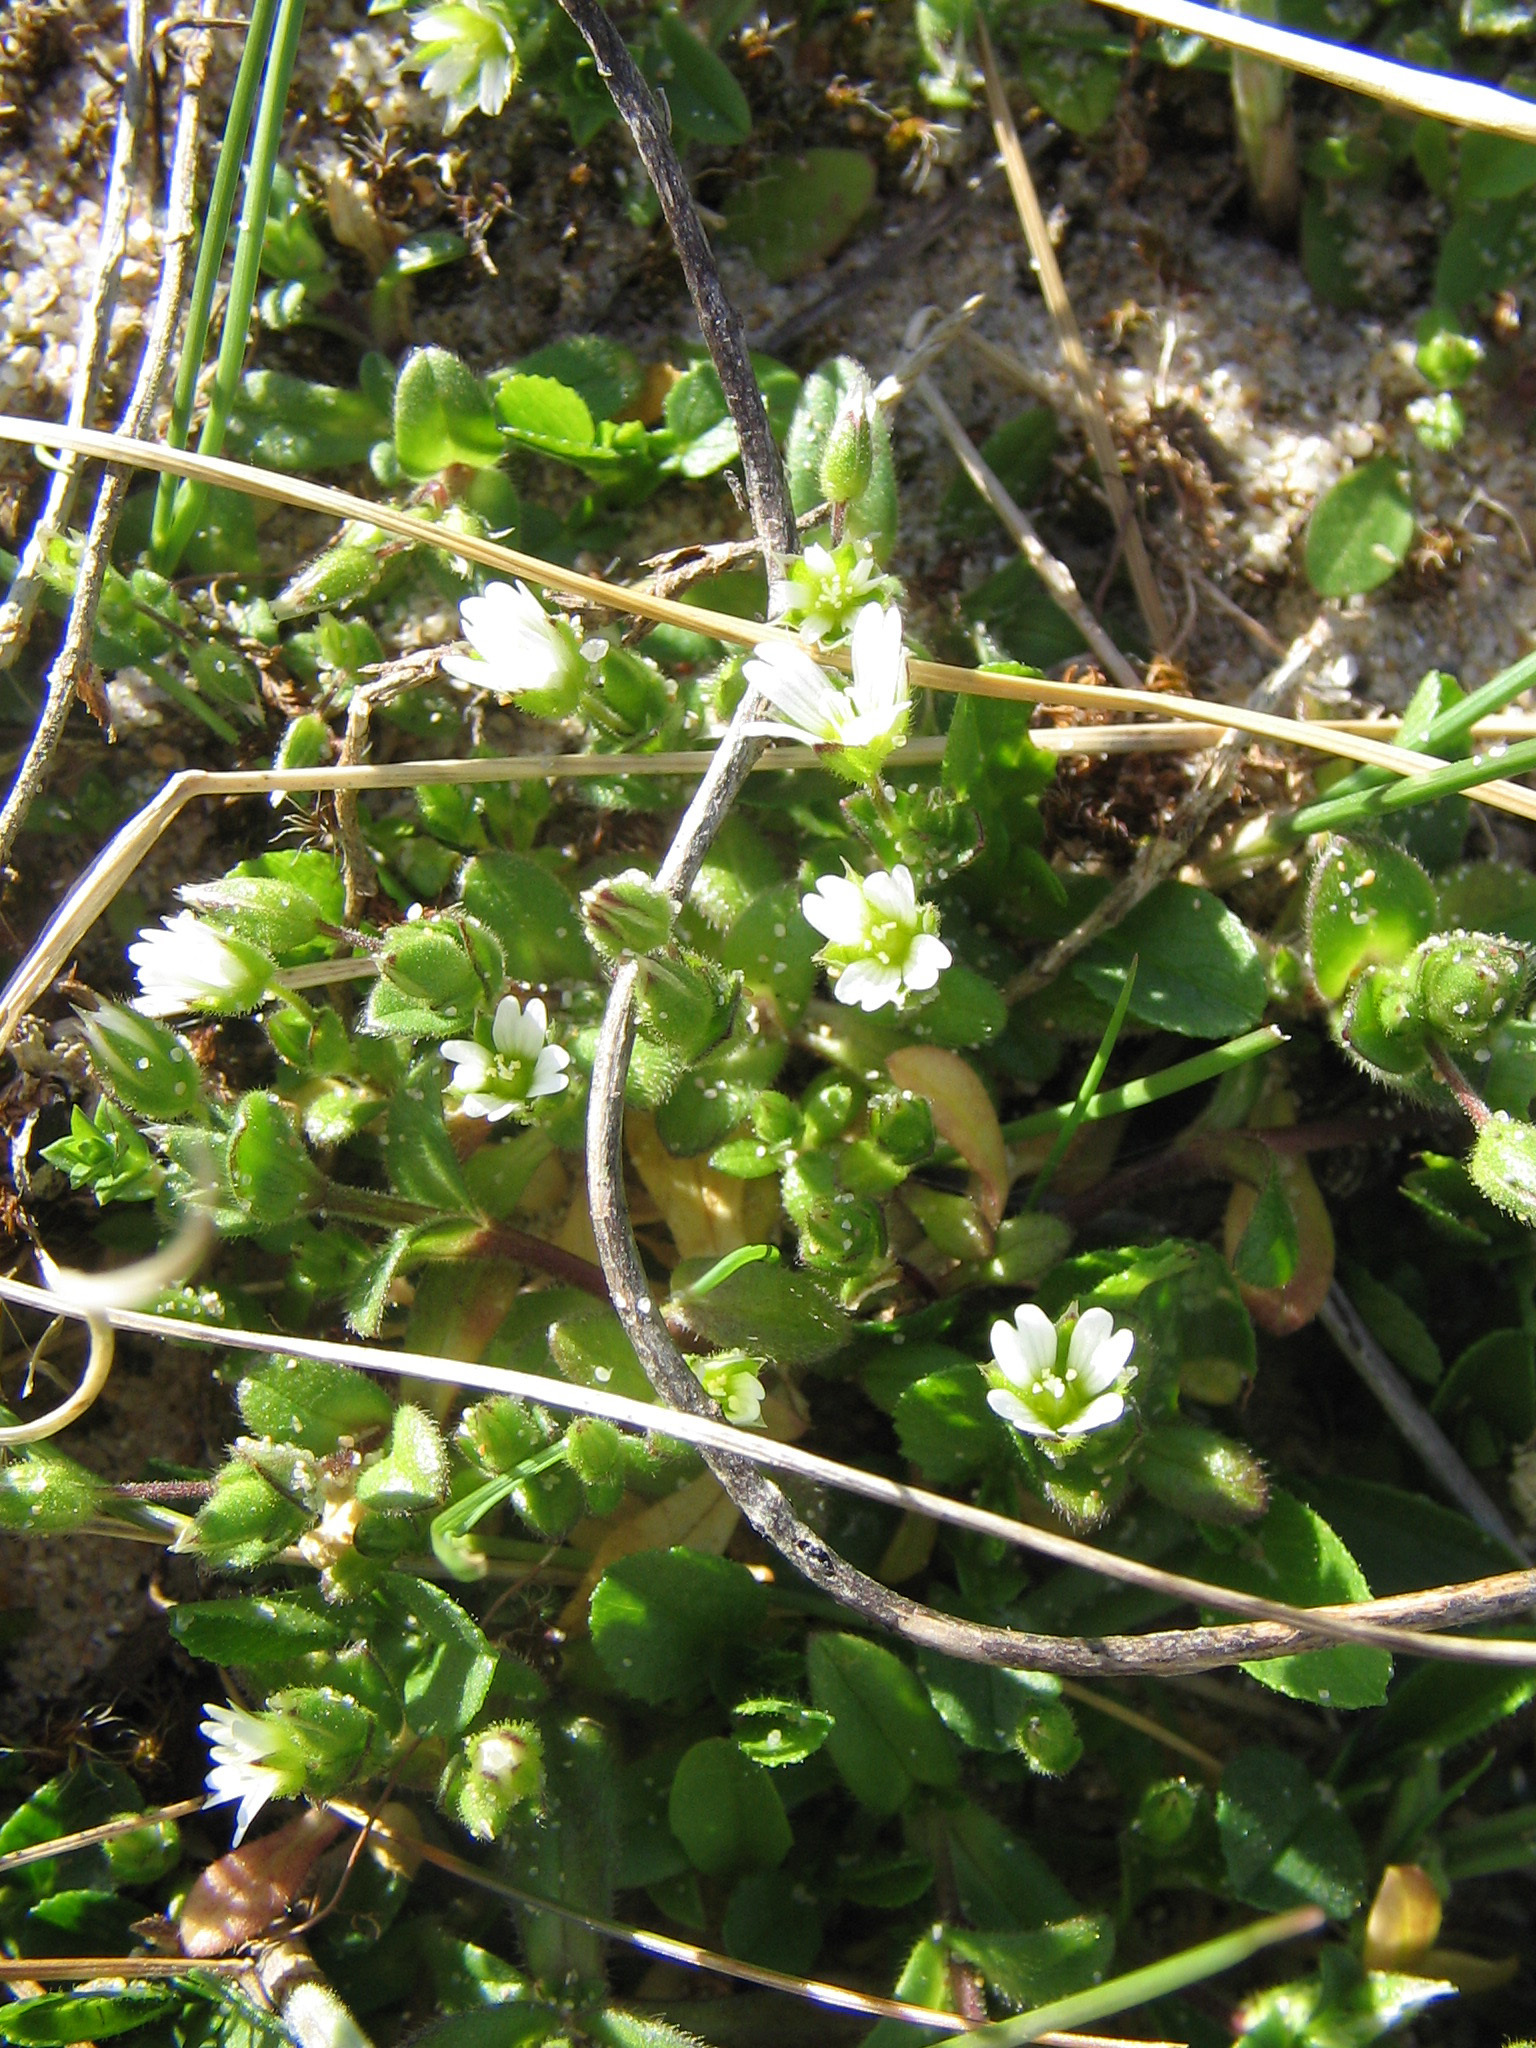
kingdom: Plantae
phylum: Tracheophyta
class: Magnoliopsida
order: Caryophyllales
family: Caryophyllaceae
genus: Cerastium
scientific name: Cerastium diffusum
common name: Fourstamen chickweed
